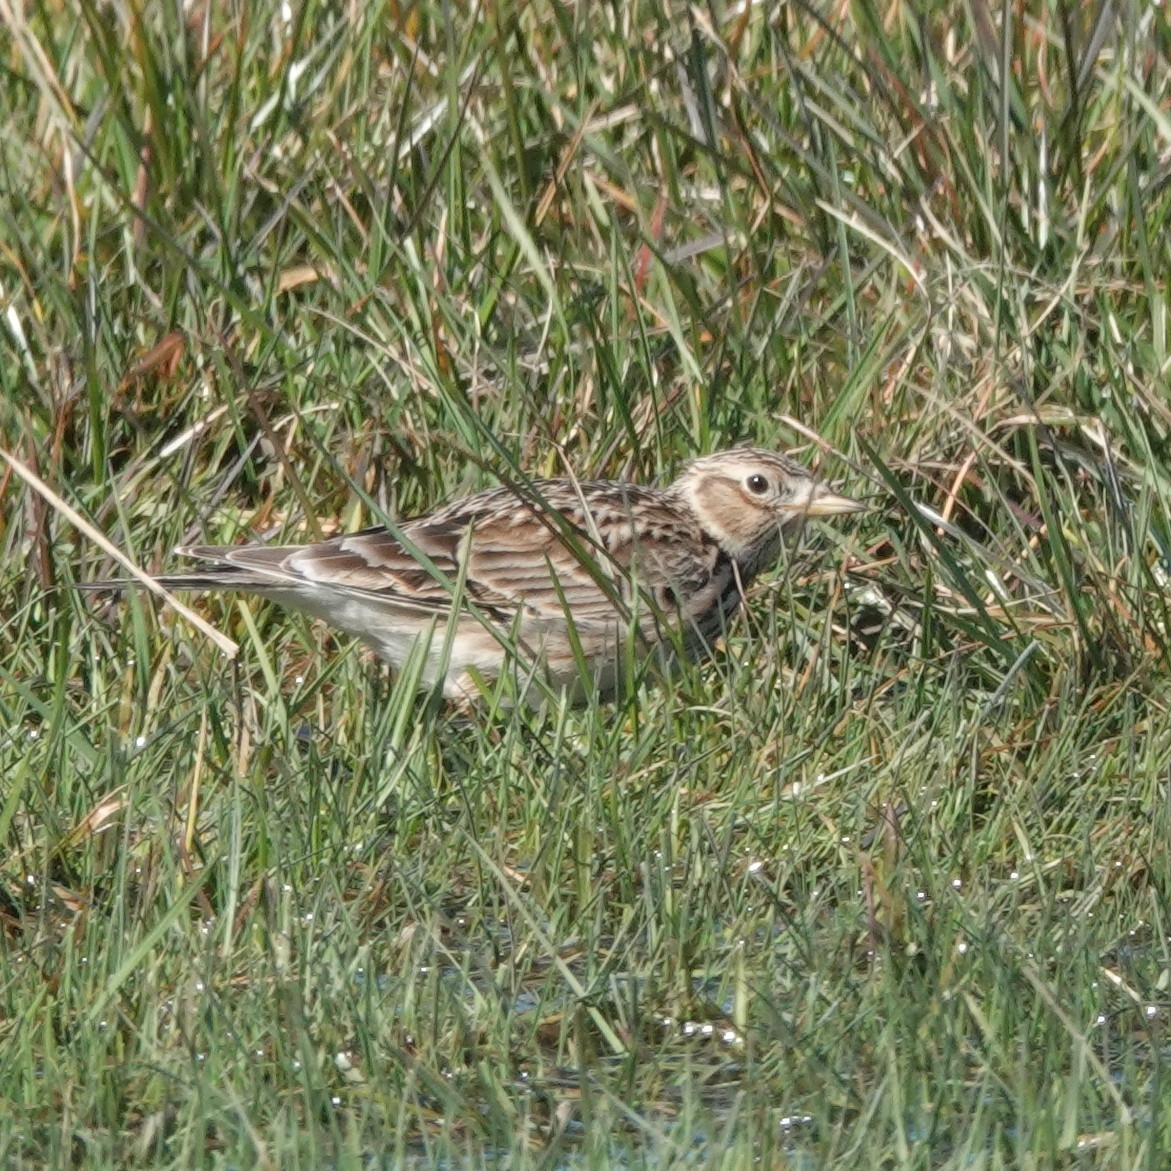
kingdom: Animalia
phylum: Chordata
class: Aves
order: Passeriformes
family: Alaudidae
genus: Alauda
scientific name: Alauda arvensis
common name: Eurasian skylark
